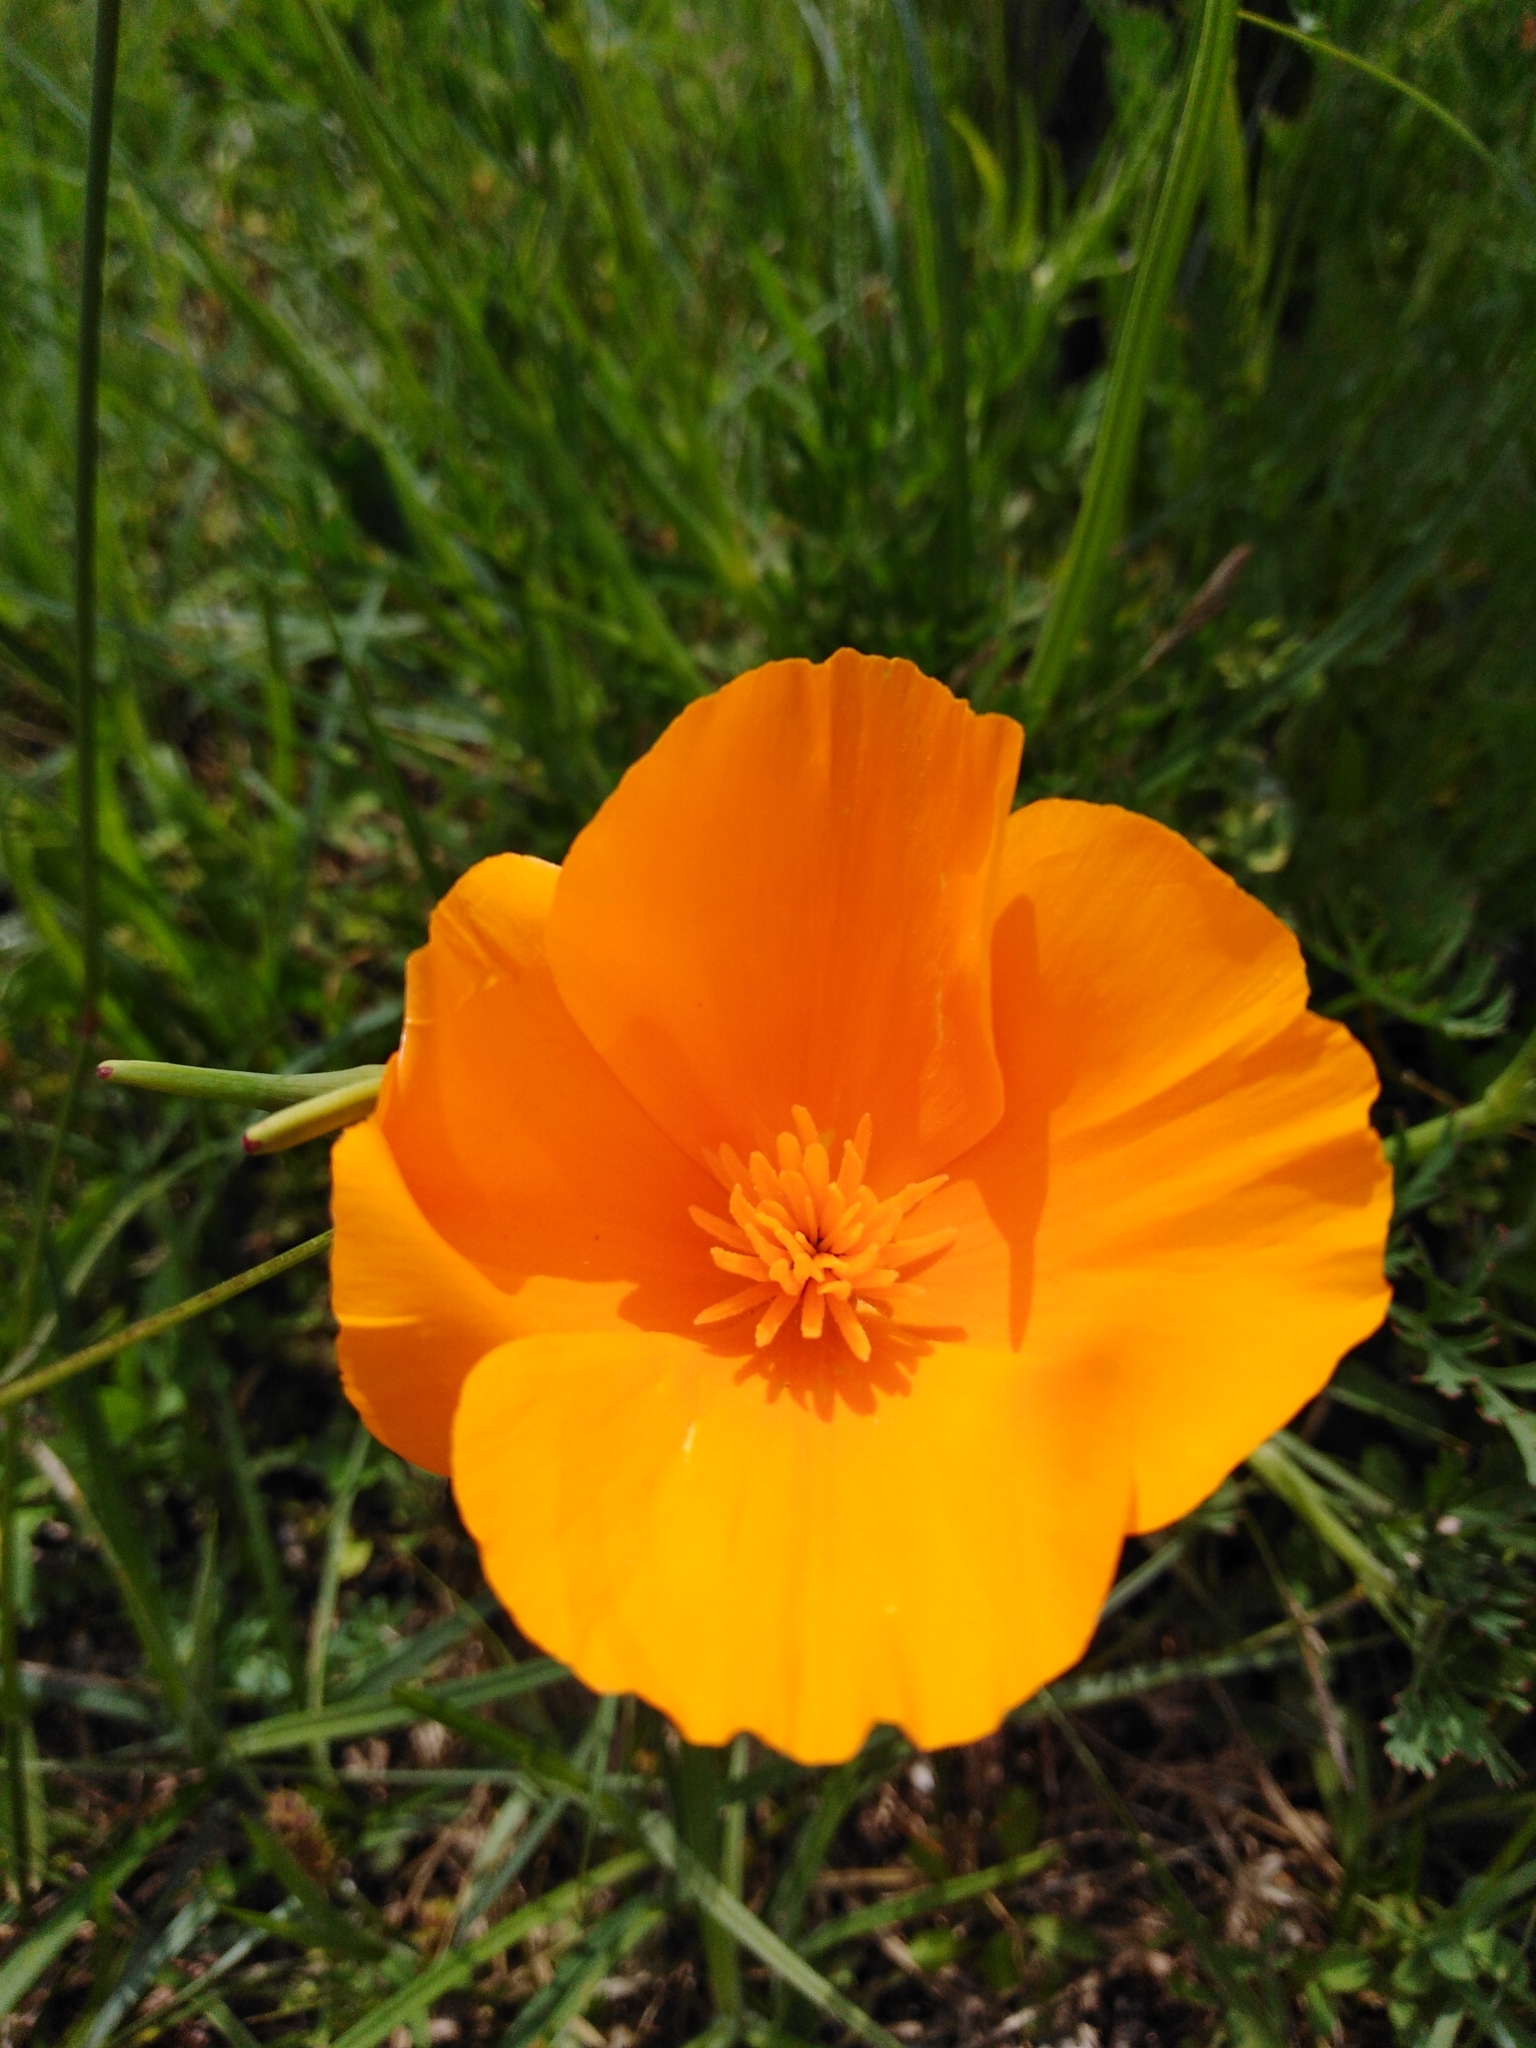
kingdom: Plantae
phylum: Tracheophyta
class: Magnoliopsida
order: Ranunculales
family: Papaveraceae
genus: Eschscholzia
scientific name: Eschscholzia californica
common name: California poppy
